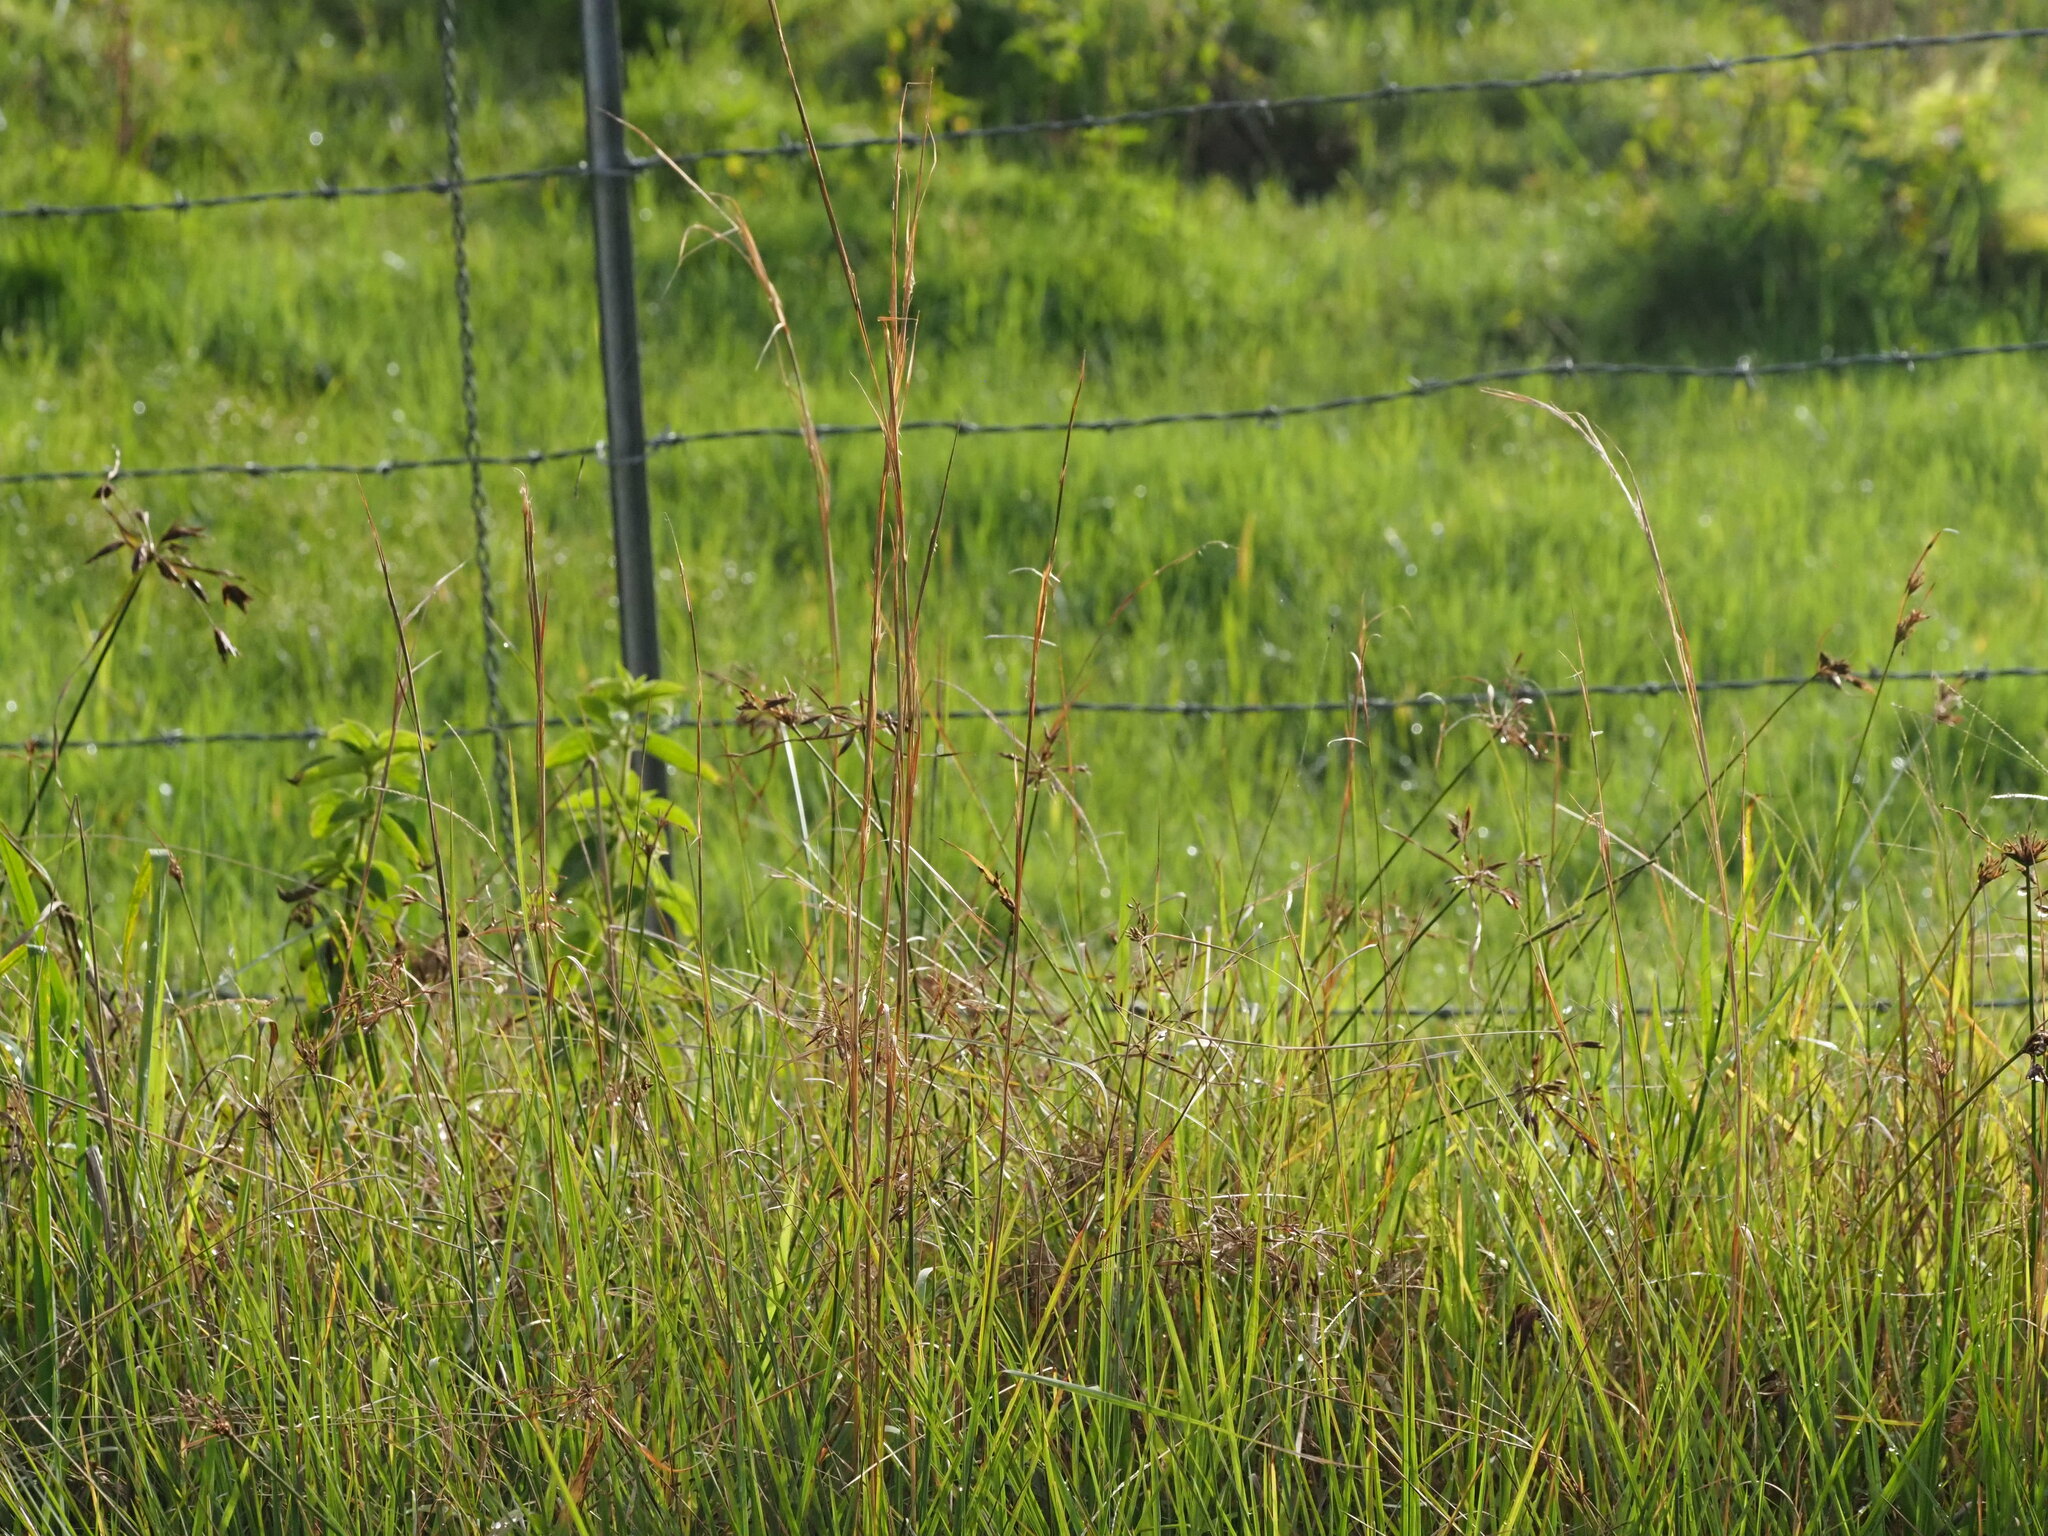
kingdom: Plantae
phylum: Tracheophyta
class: Liliopsida
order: Poales
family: Poaceae
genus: Andropogon
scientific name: Andropogon virginicus
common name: Broomsedge bluestem
